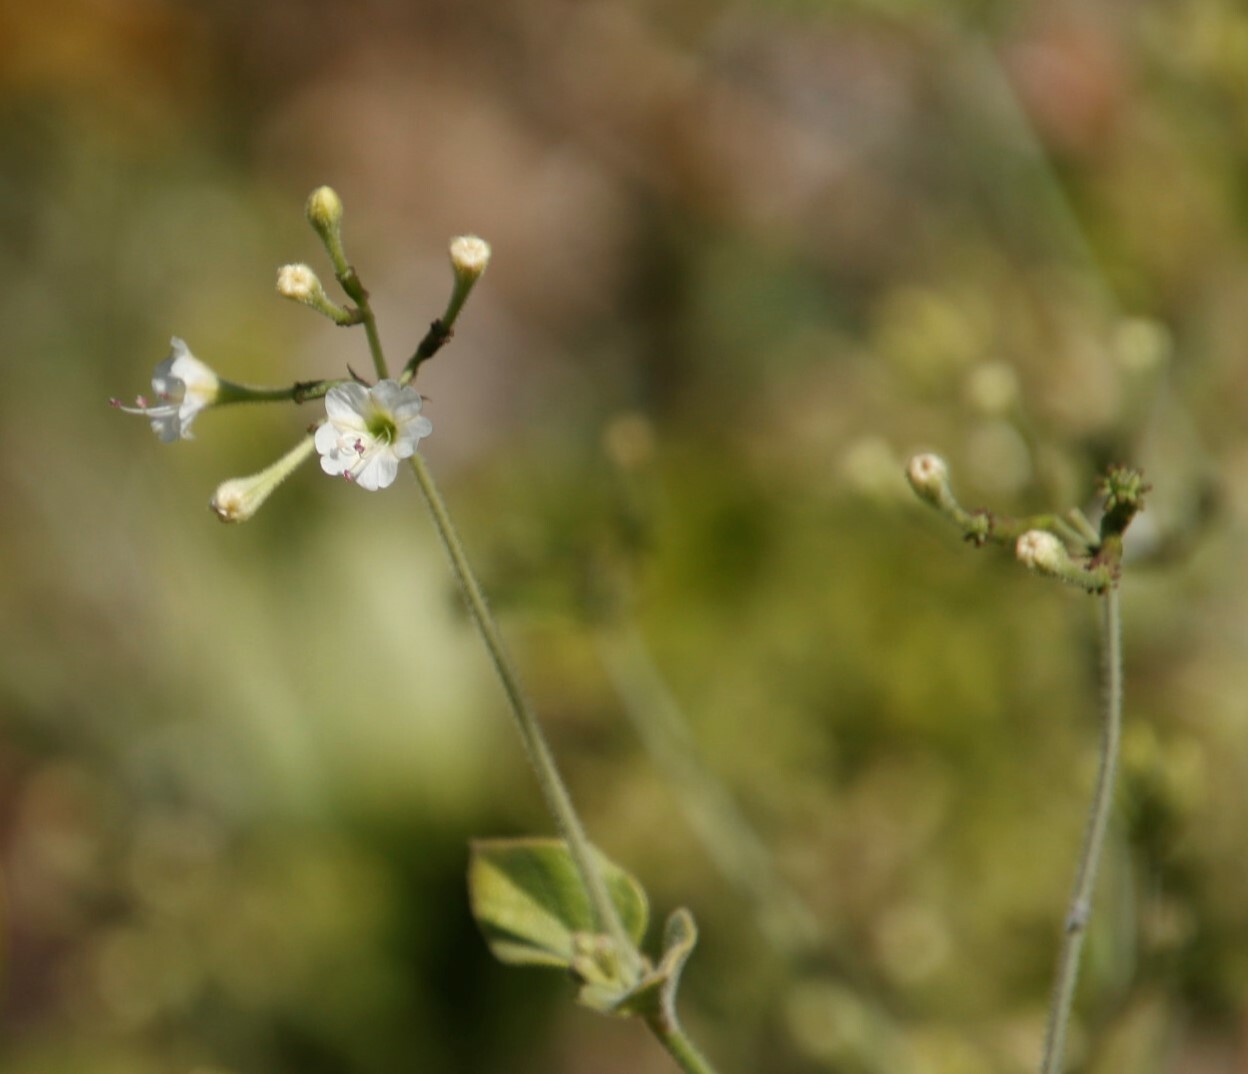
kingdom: Plantae
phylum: Tracheophyta
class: Magnoliopsida
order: Caryophyllales
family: Nyctaginaceae
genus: Commicarpus
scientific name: Commicarpus plumbagineus
